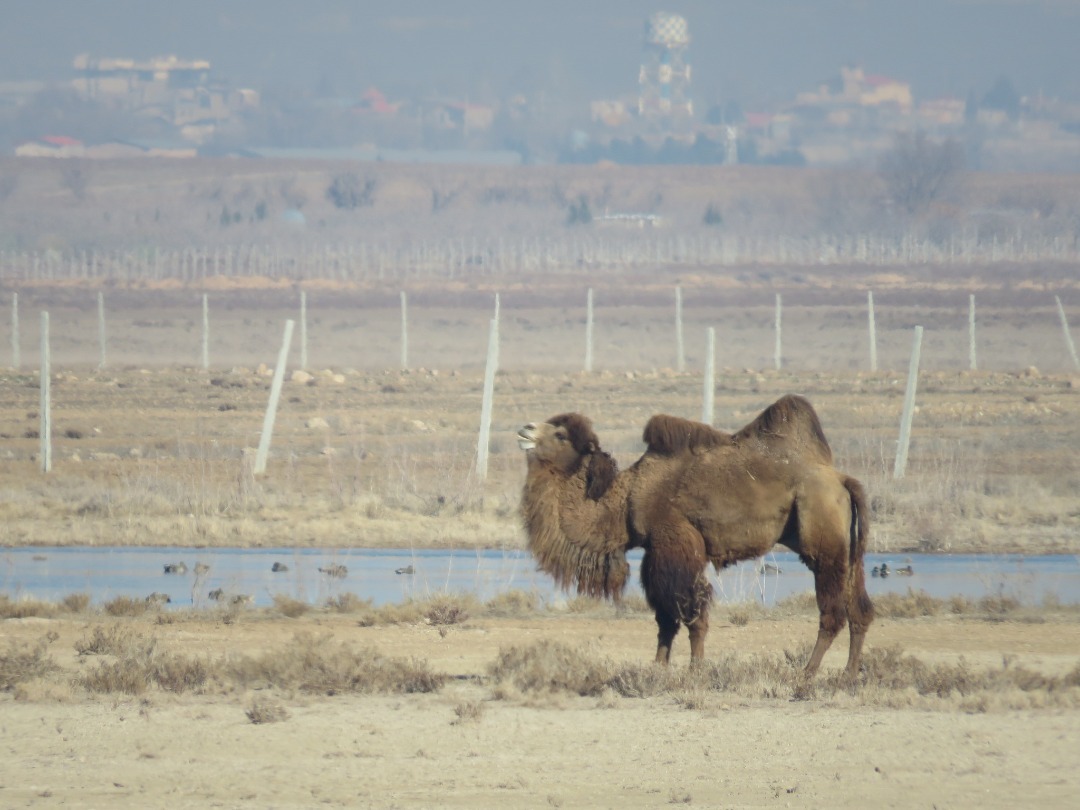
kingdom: Animalia
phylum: Chordata
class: Mammalia
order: Artiodactyla
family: Camelidae
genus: Camelus
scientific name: Camelus bactrianus
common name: Bactrian camel
